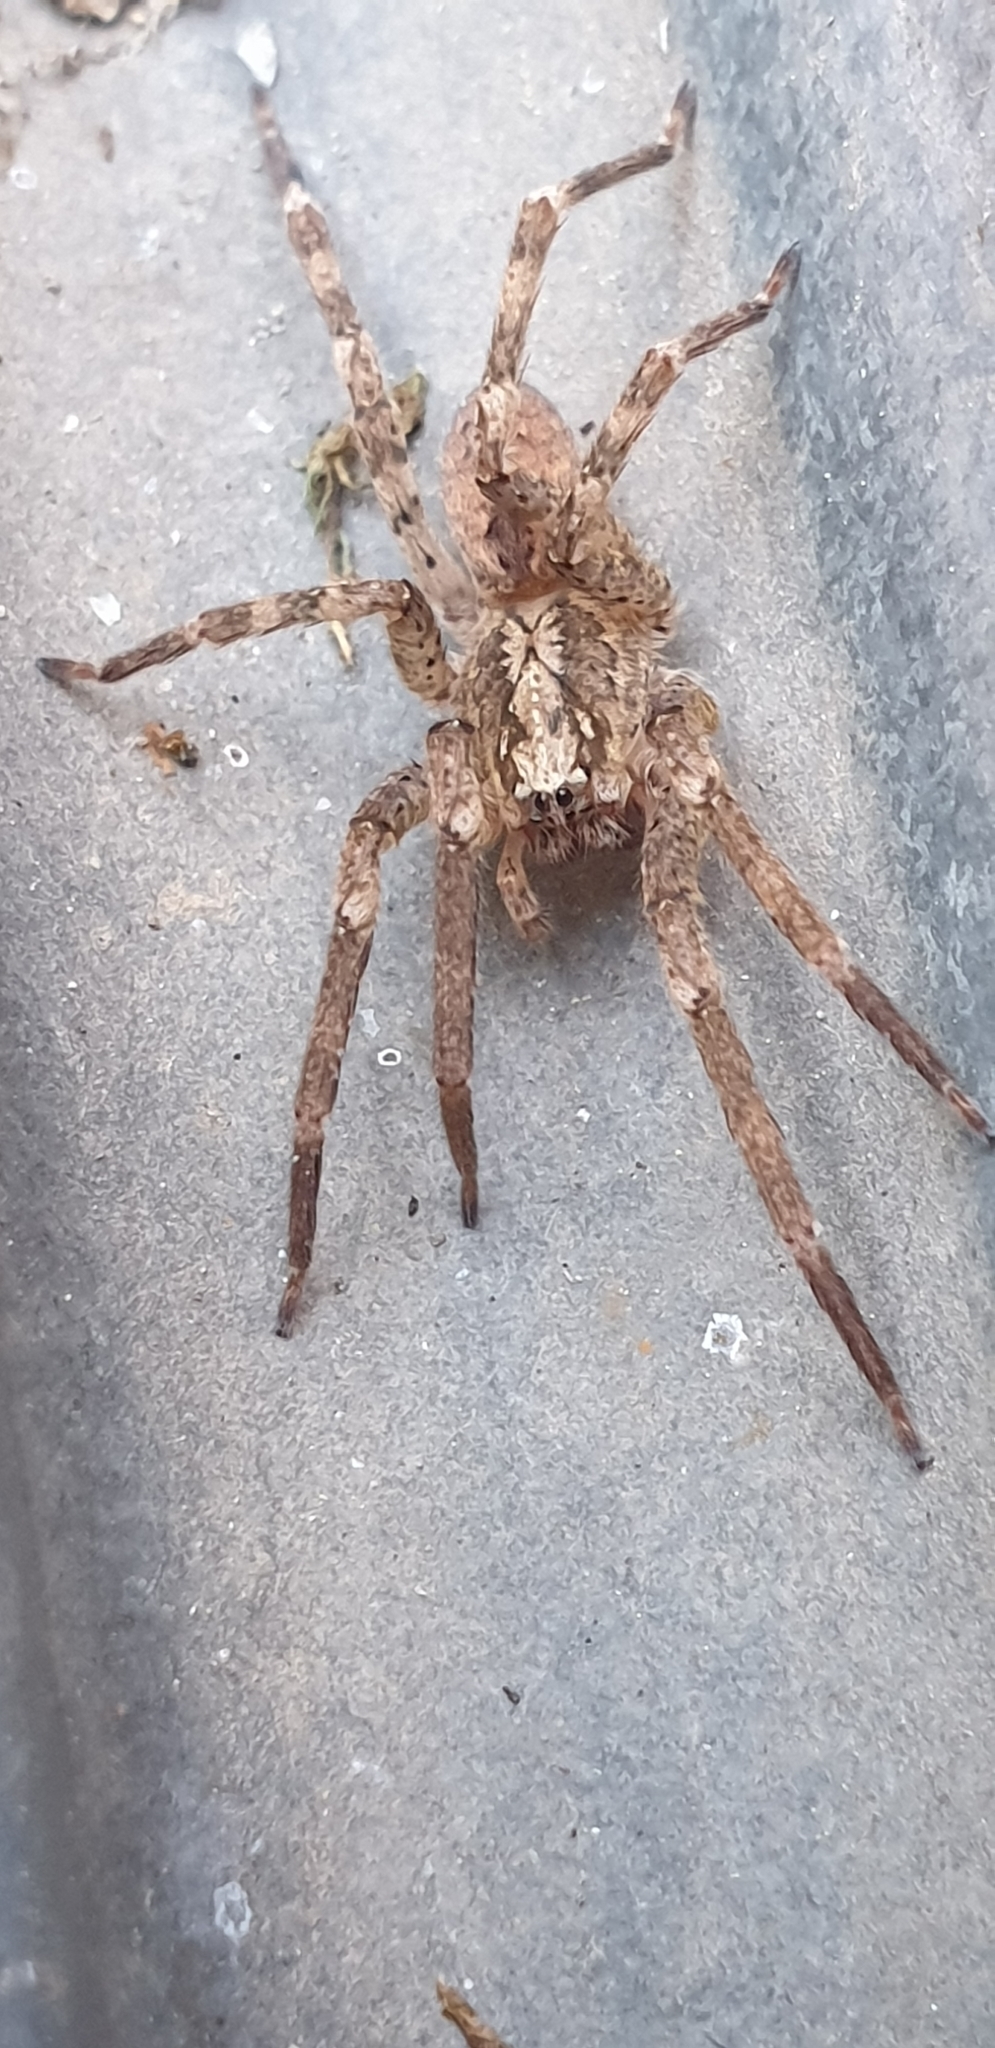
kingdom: Animalia
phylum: Arthropoda
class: Arachnida
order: Araneae
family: Zoropsidae
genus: Zoropsis
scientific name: Zoropsis spinimana
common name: Zoropsid spider
